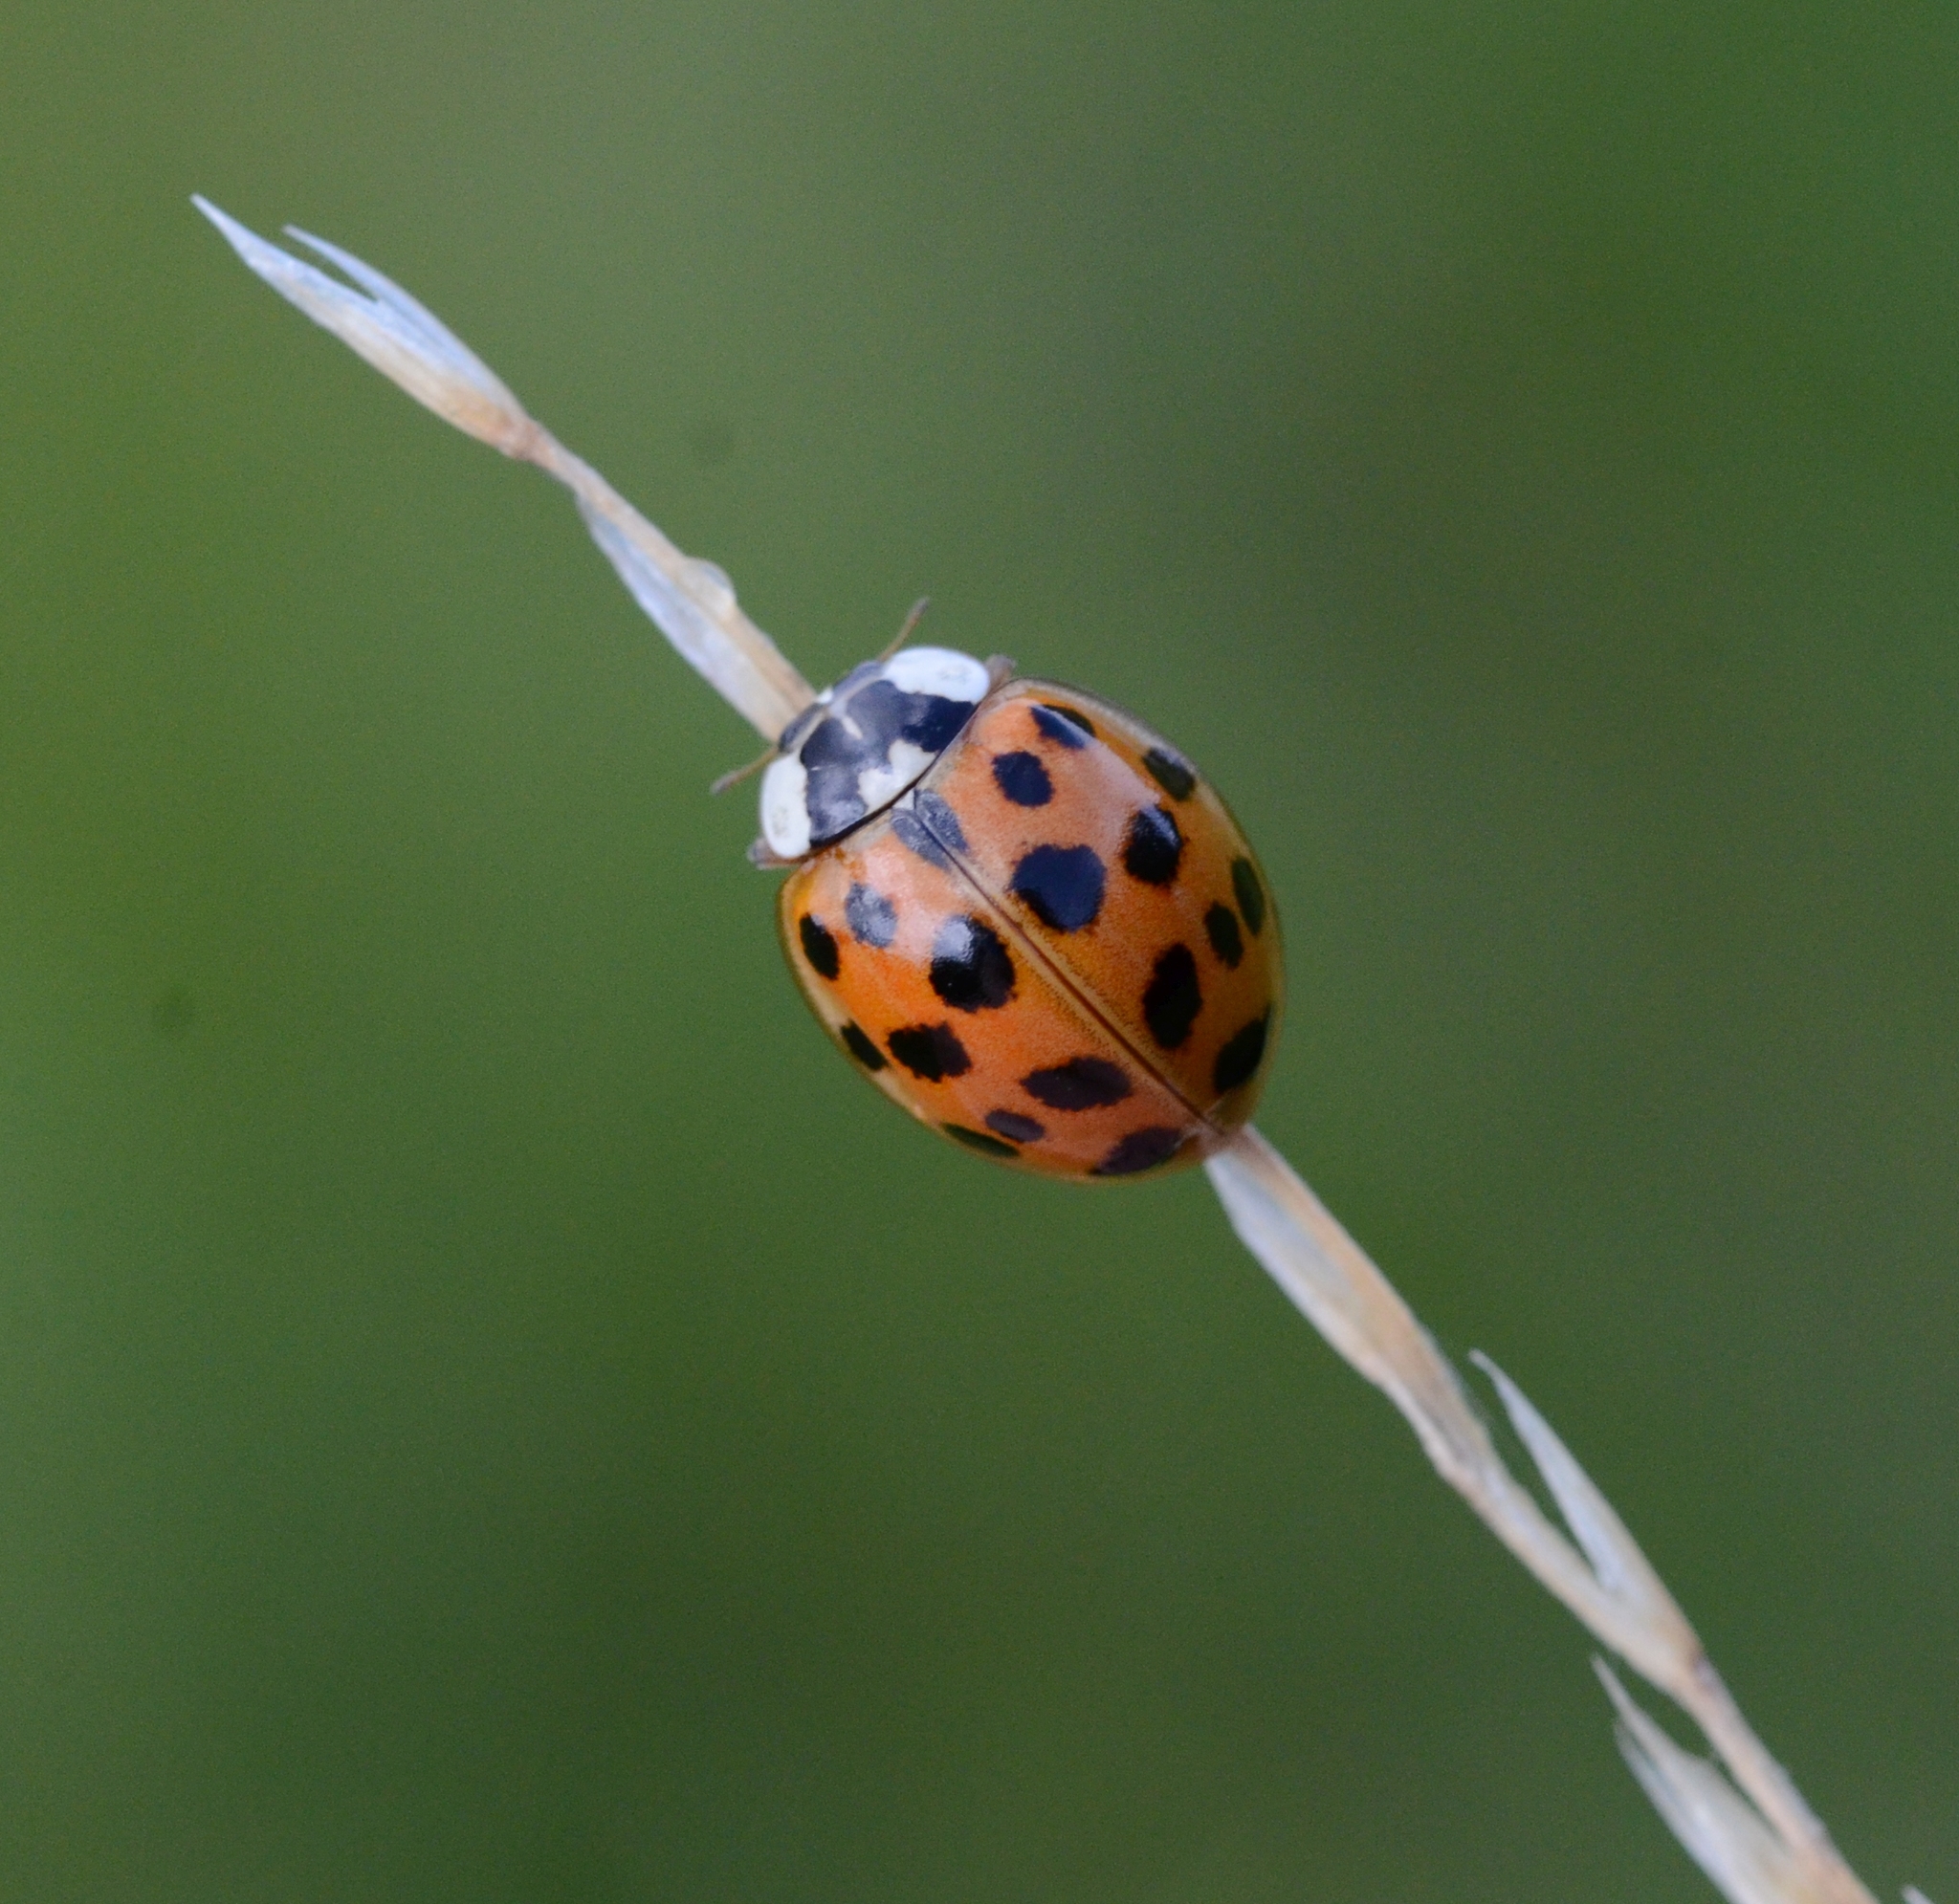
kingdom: Animalia
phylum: Arthropoda
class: Insecta
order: Coleoptera
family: Coccinellidae
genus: Harmonia
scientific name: Harmonia axyridis
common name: Harlequin ladybird
